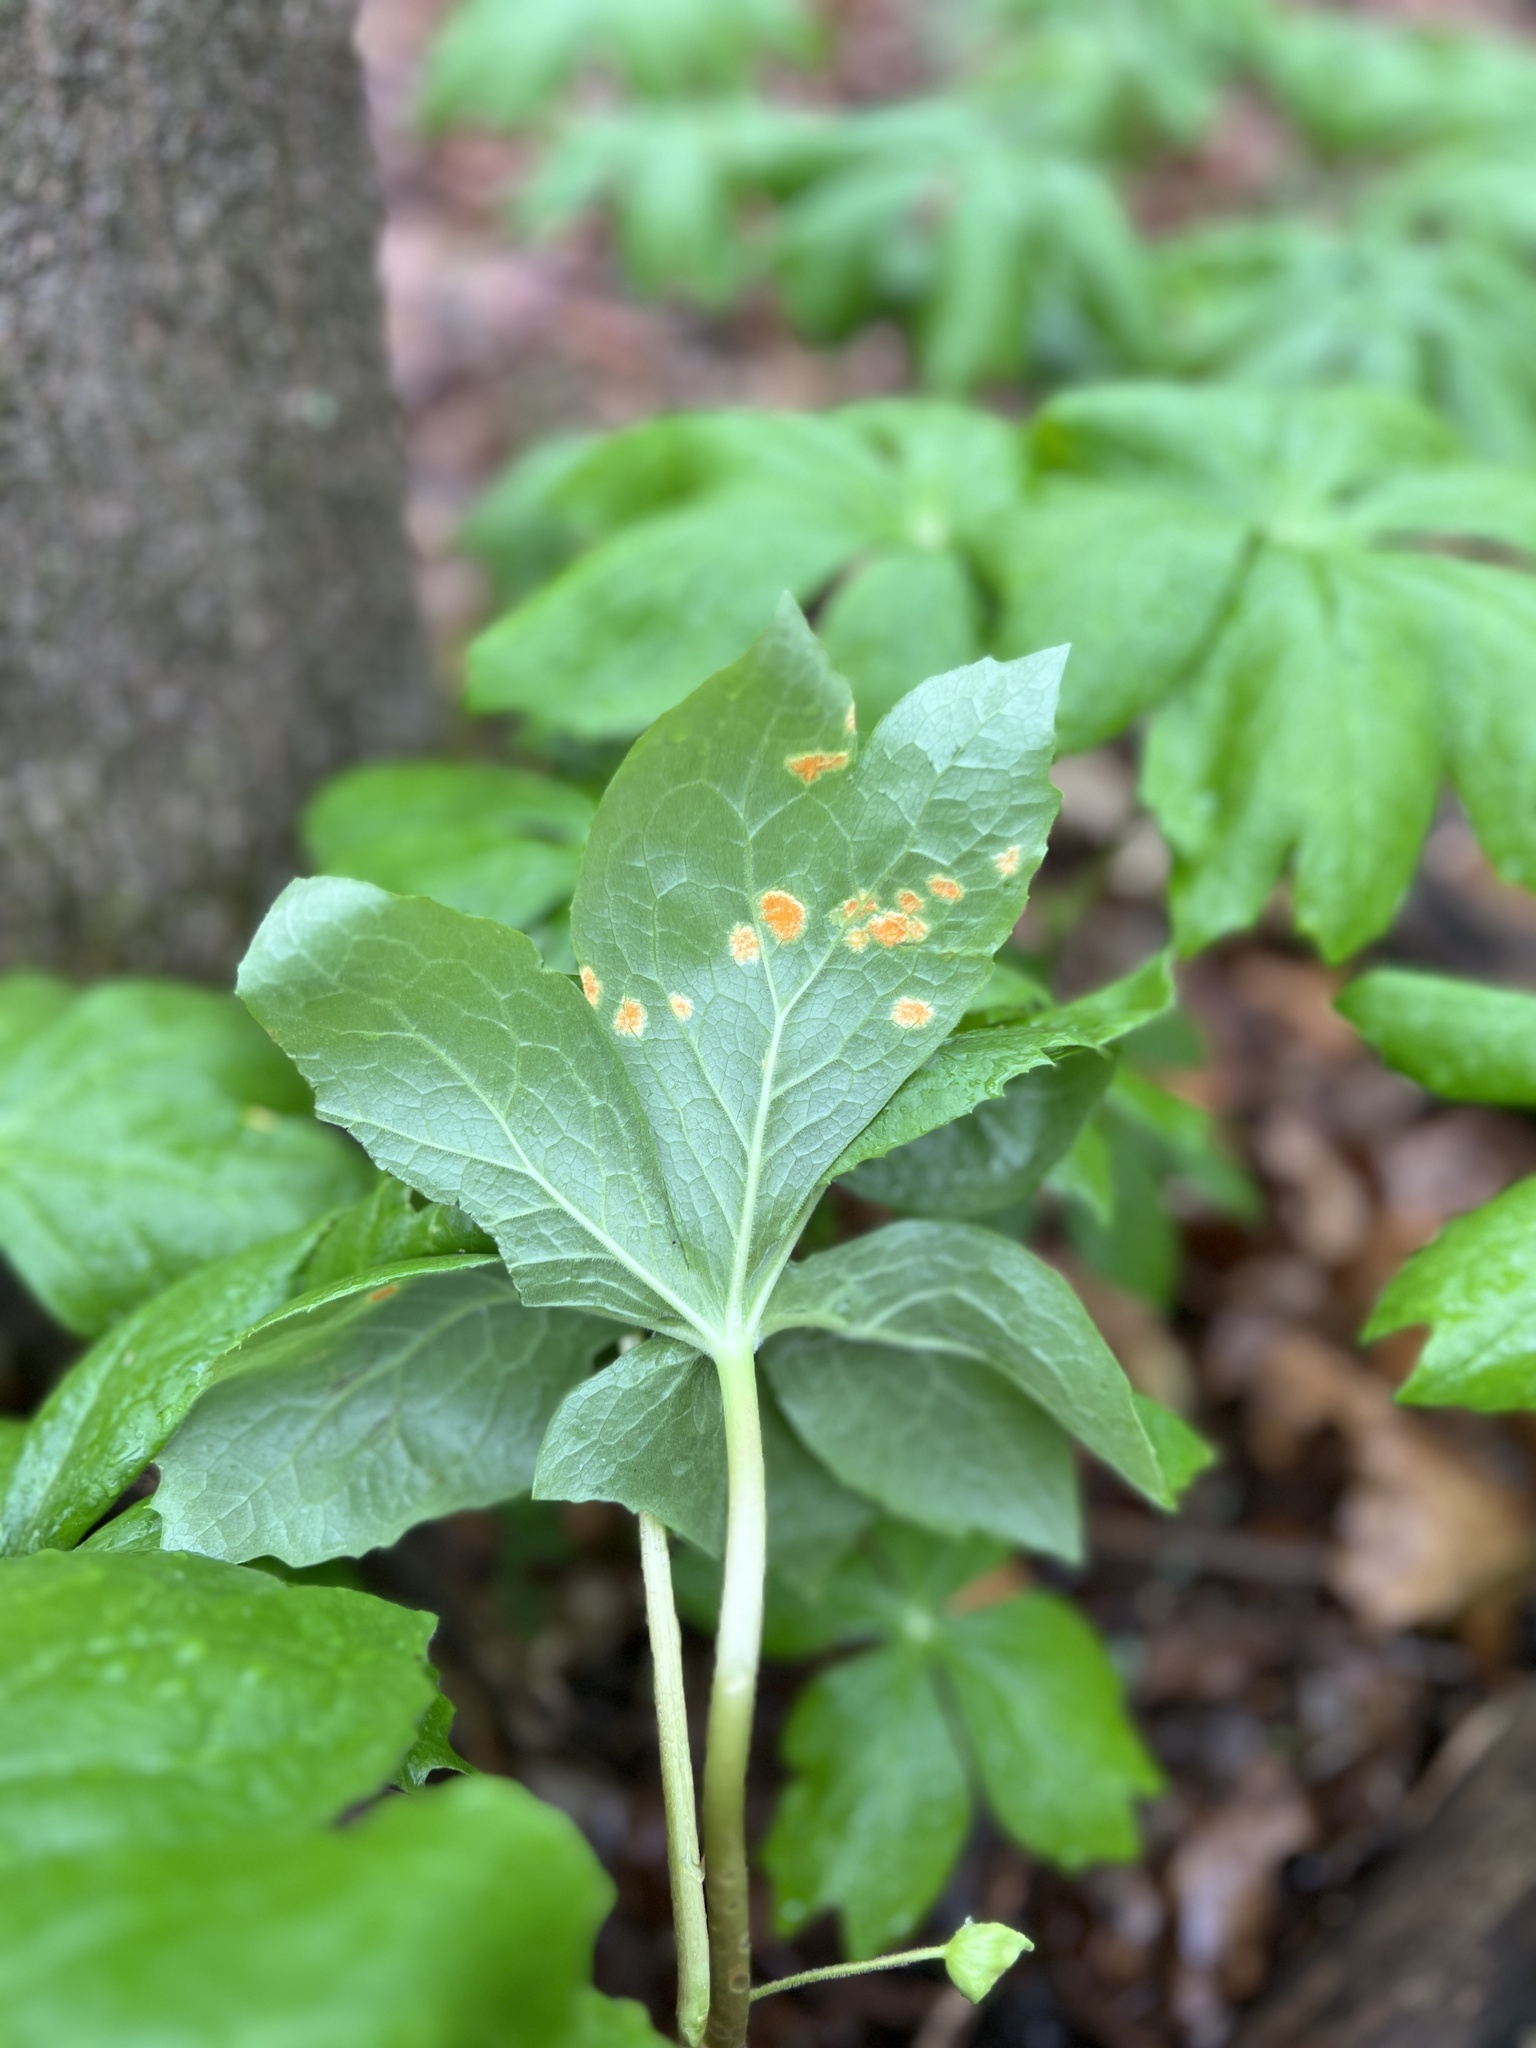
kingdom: Fungi
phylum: Basidiomycota
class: Pucciniomycetes
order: Pucciniales
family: Pucciniaceae
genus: Puccinia
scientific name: Puccinia podophylli
